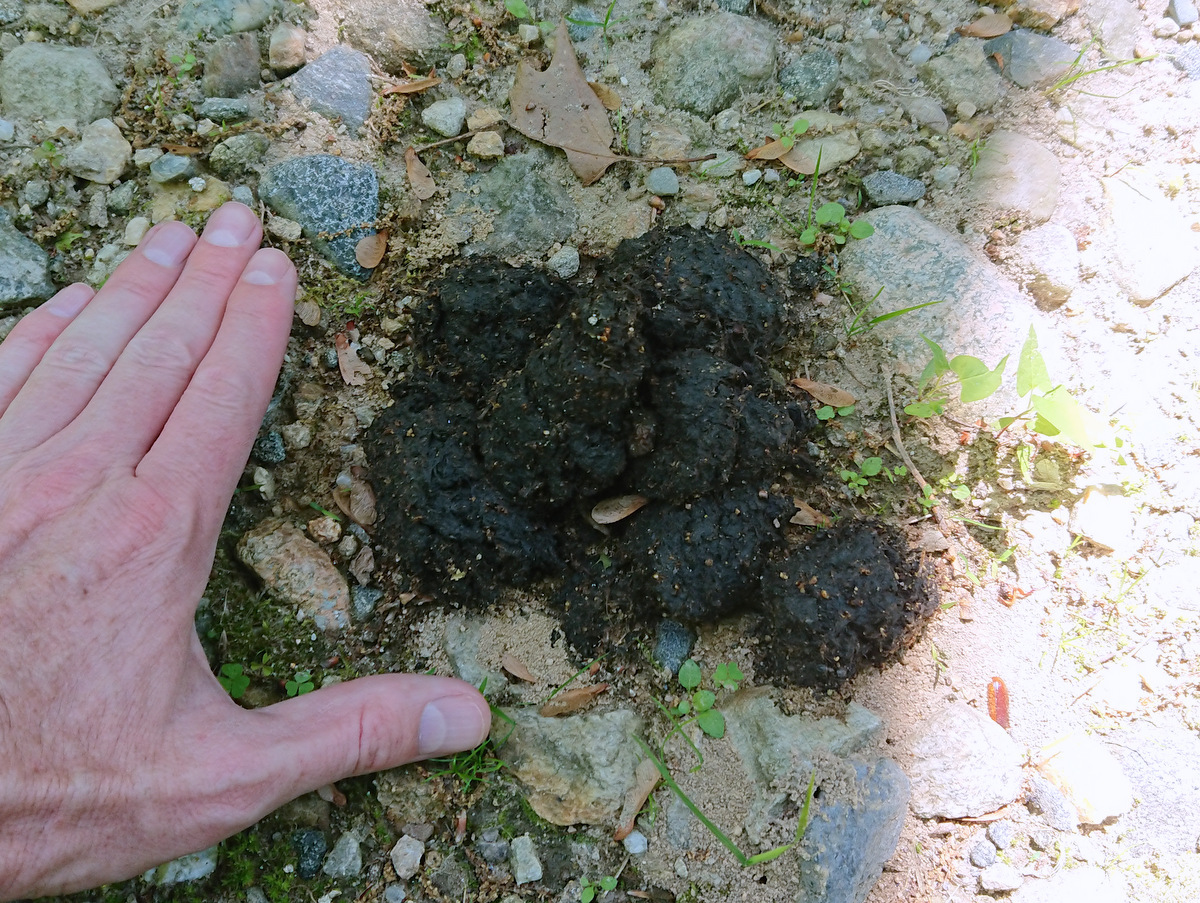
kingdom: Animalia
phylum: Chordata
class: Mammalia
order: Carnivora
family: Ursidae
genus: Ursus
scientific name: Ursus americanus
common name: American black bear
